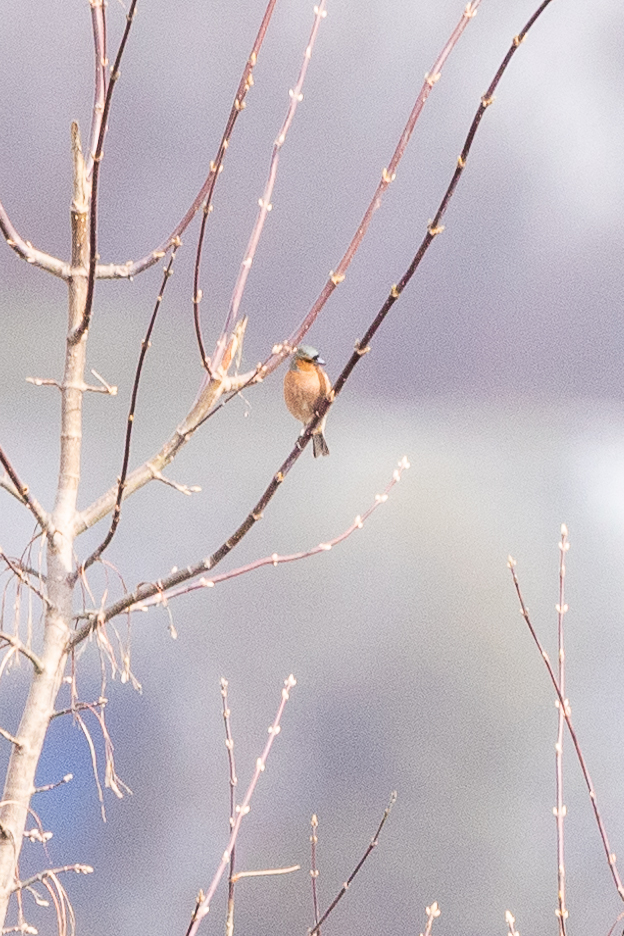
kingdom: Animalia
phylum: Chordata
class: Aves
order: Passeriformes
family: Fringillidae
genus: Fringilla
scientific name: Fringilla coelebs
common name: Common chaffinch
